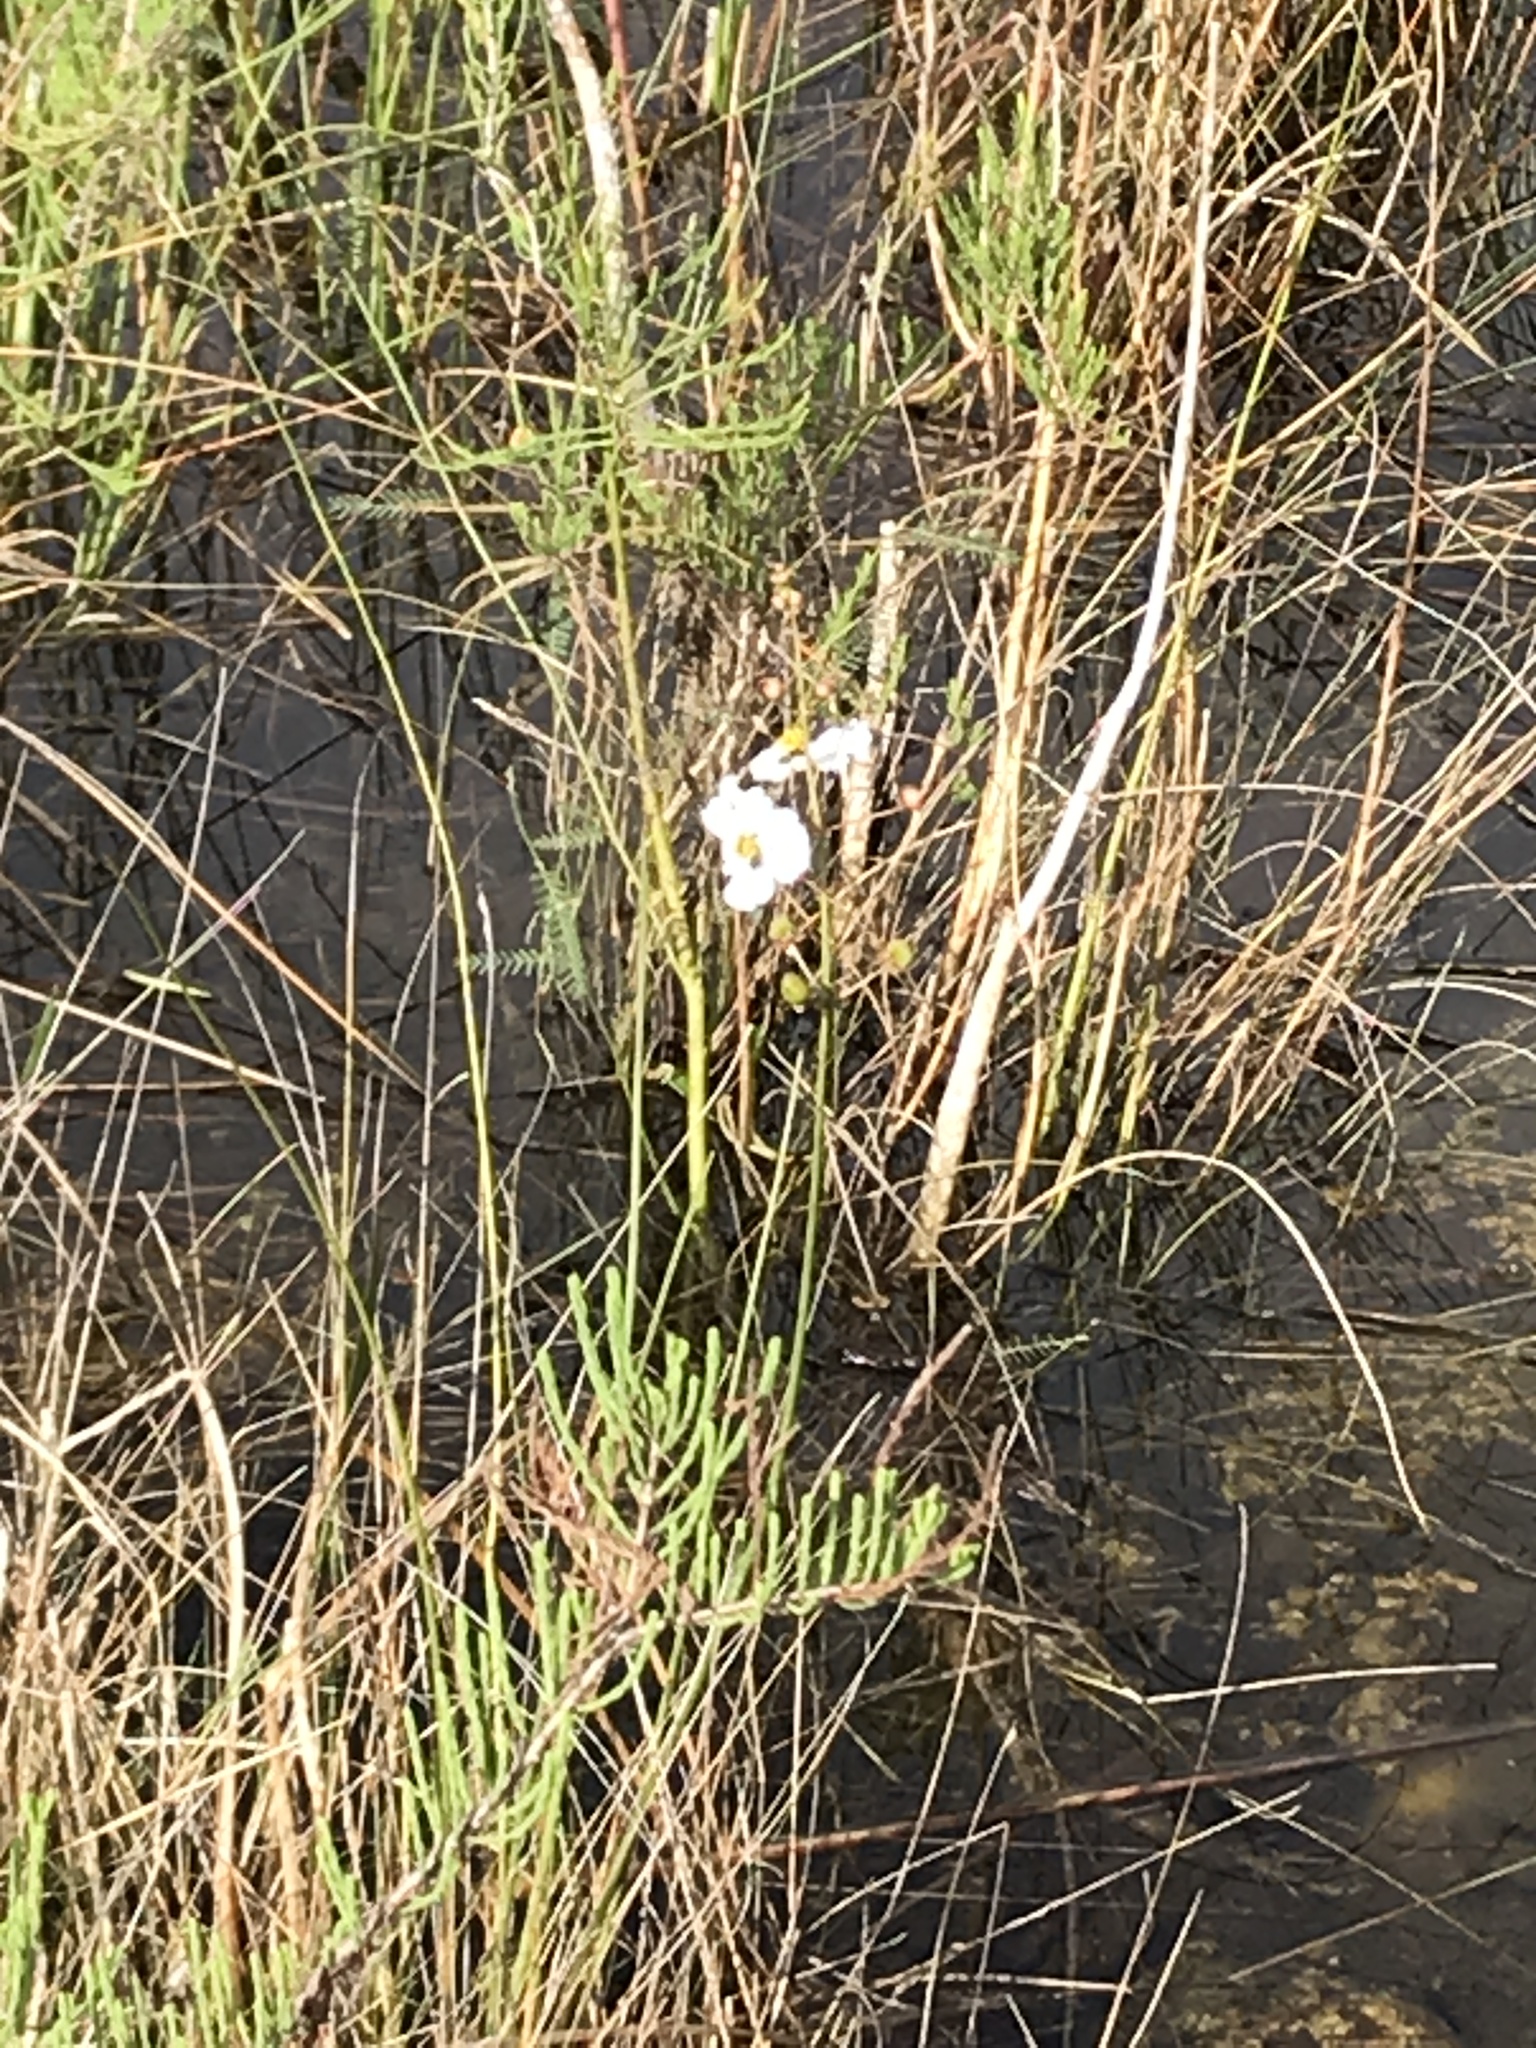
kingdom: Plantae
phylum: Tracheophyta
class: Liliopsida
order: Alismatales
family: Alismataceae
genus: Sagittaria
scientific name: Sagittaria lancifolia
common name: Lance-leaf arrowhead
